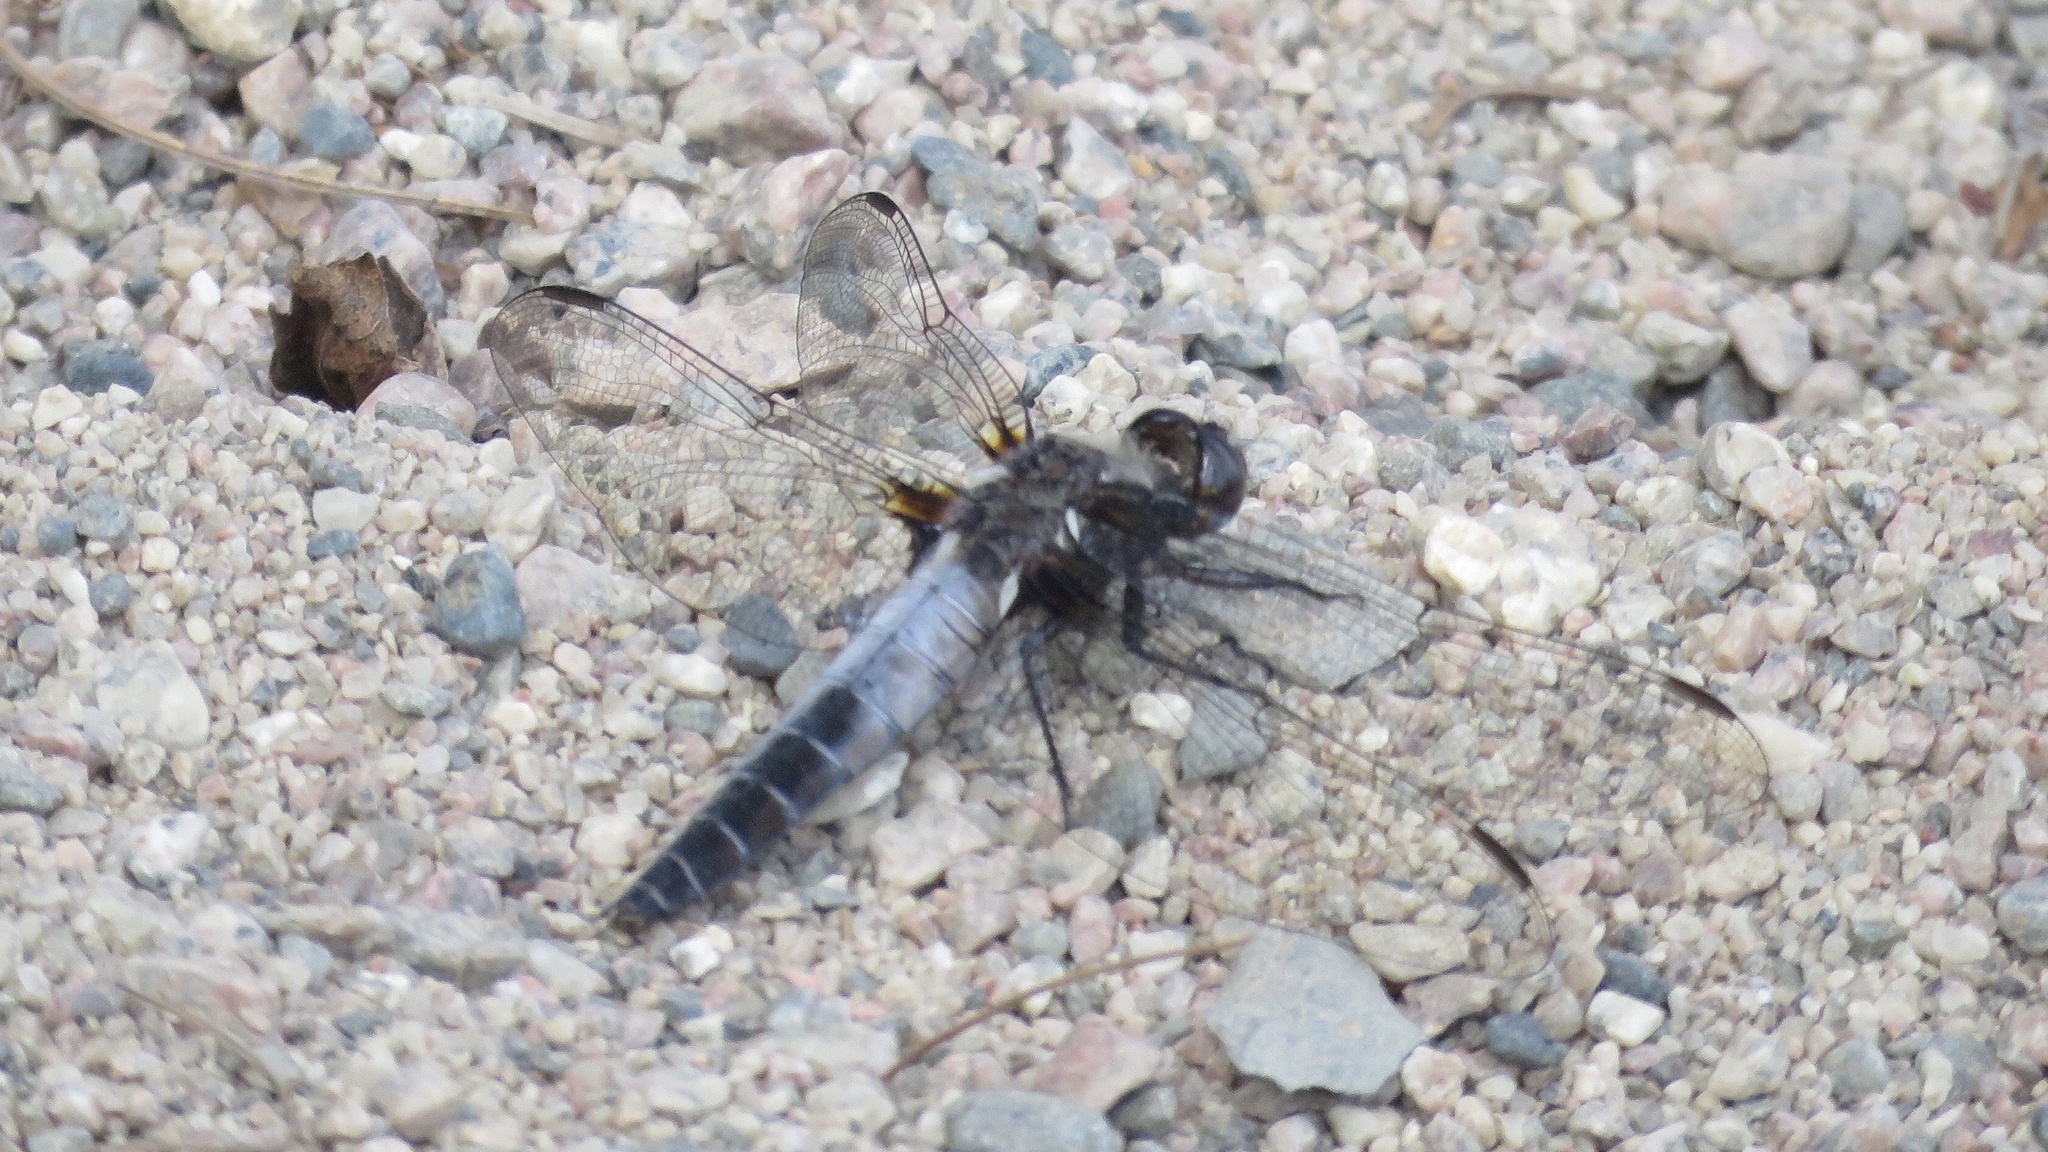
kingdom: Animalia
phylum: Arthropoda
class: Insecta
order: Odonata
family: Libellulidae
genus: Ladona
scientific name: Ladona julia
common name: Chalk-fronted corporal
